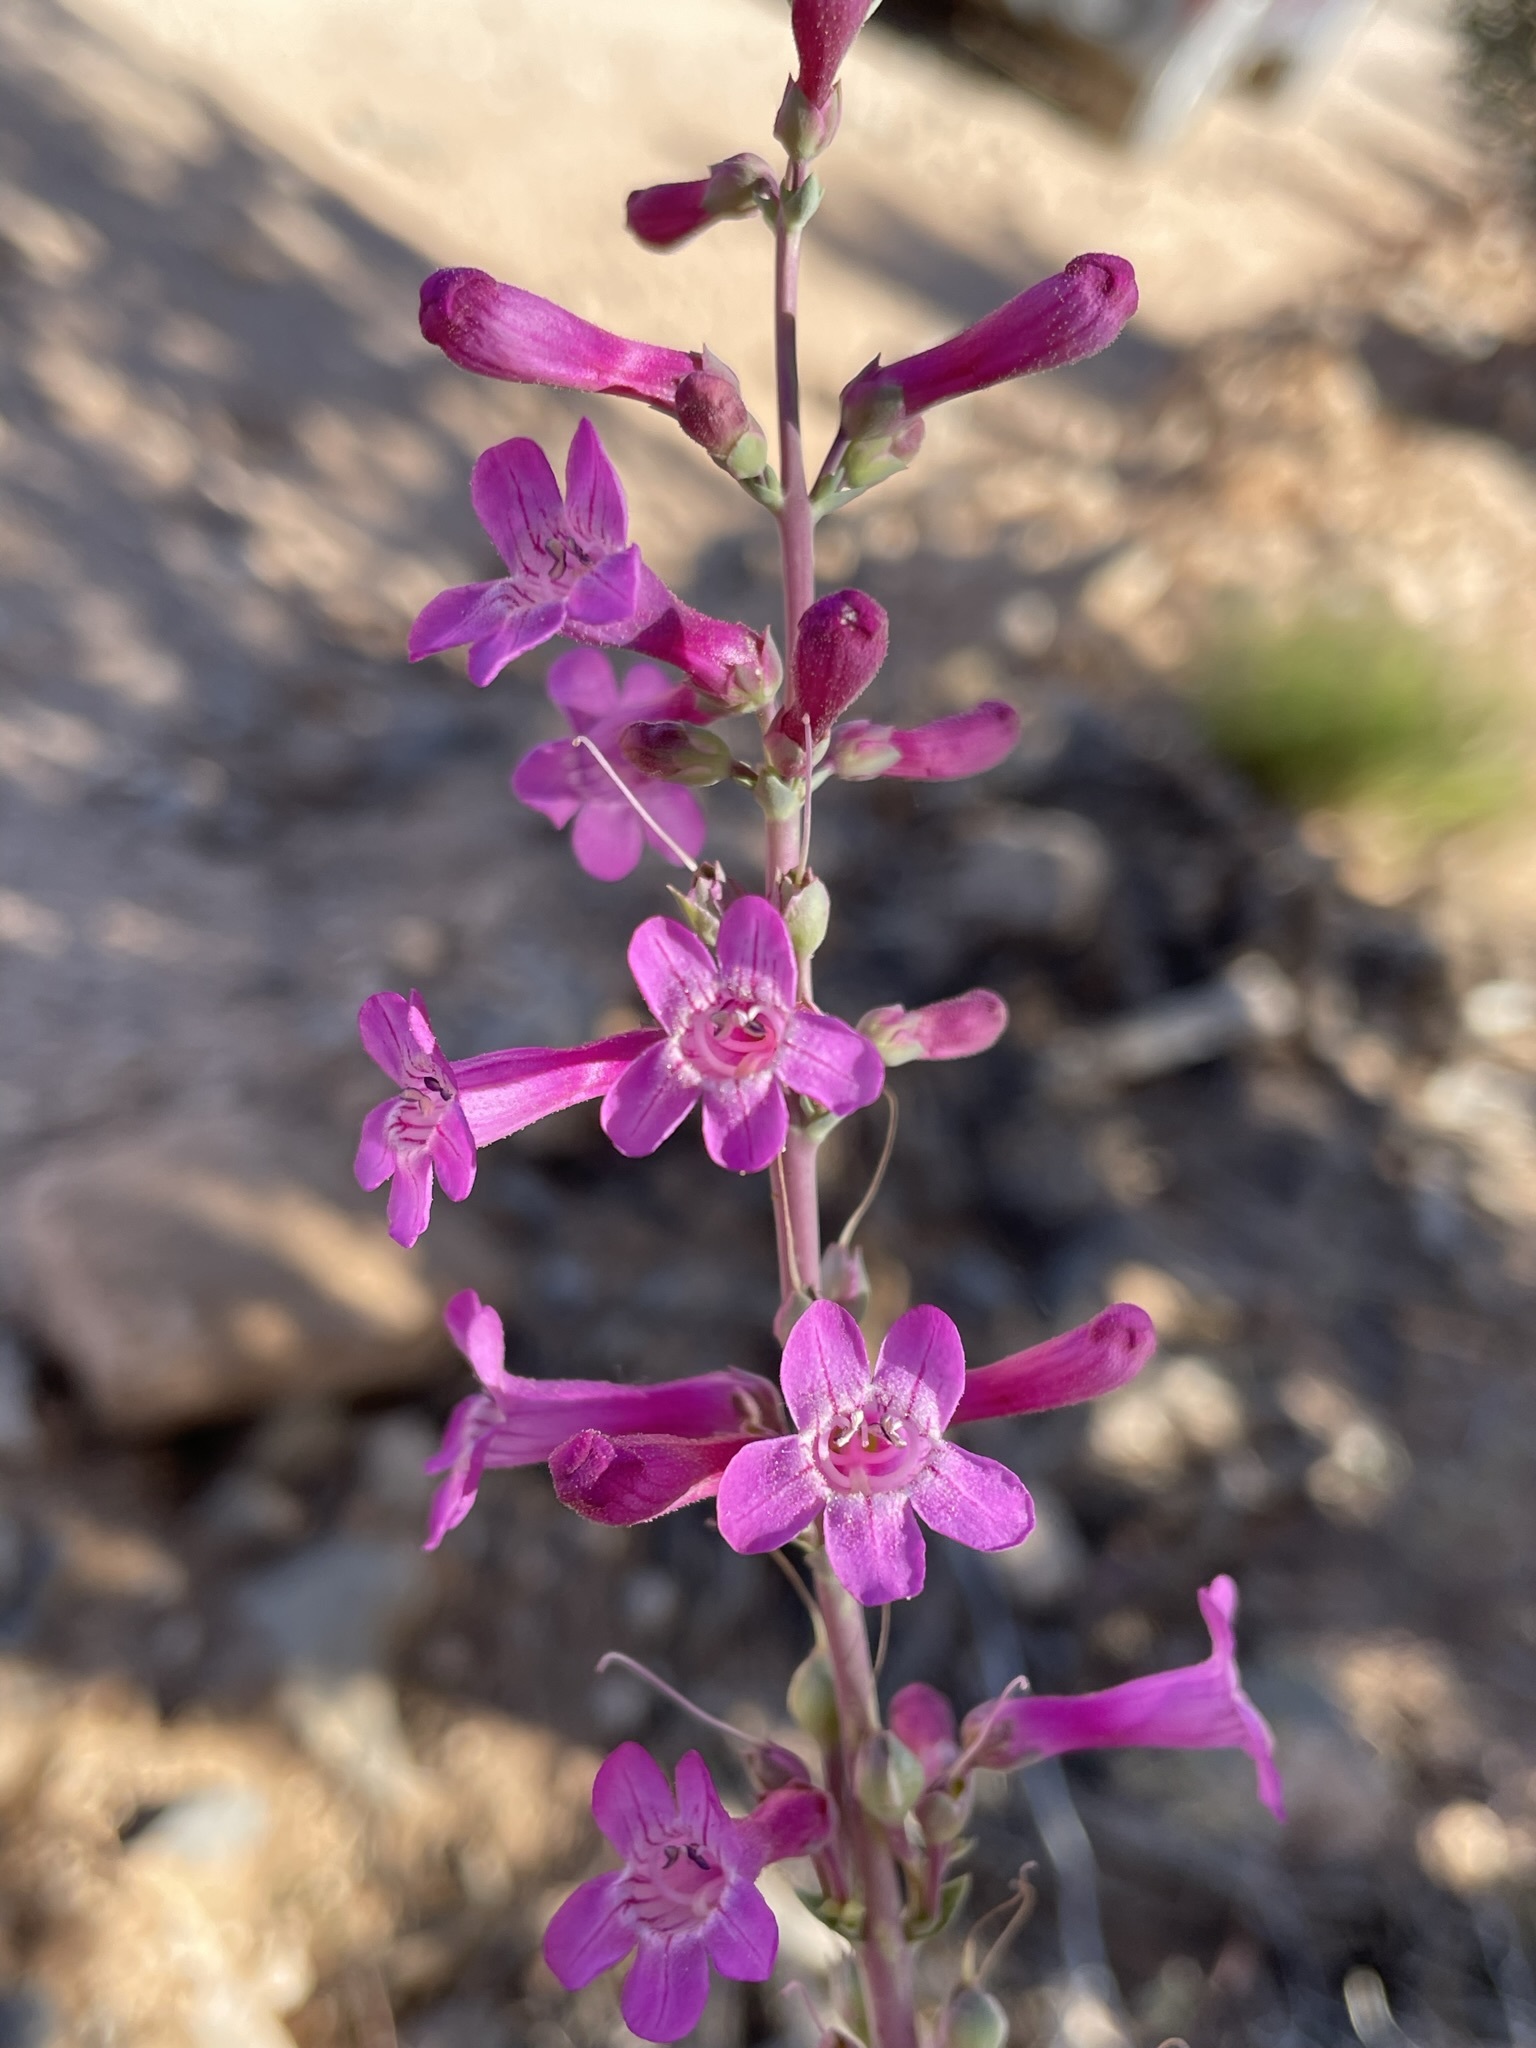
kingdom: Plantae
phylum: Tracheophyta
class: Magnoliopsida
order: Lamiales
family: Plantaginaceae
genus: Penstemon
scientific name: Penstemon confusus
